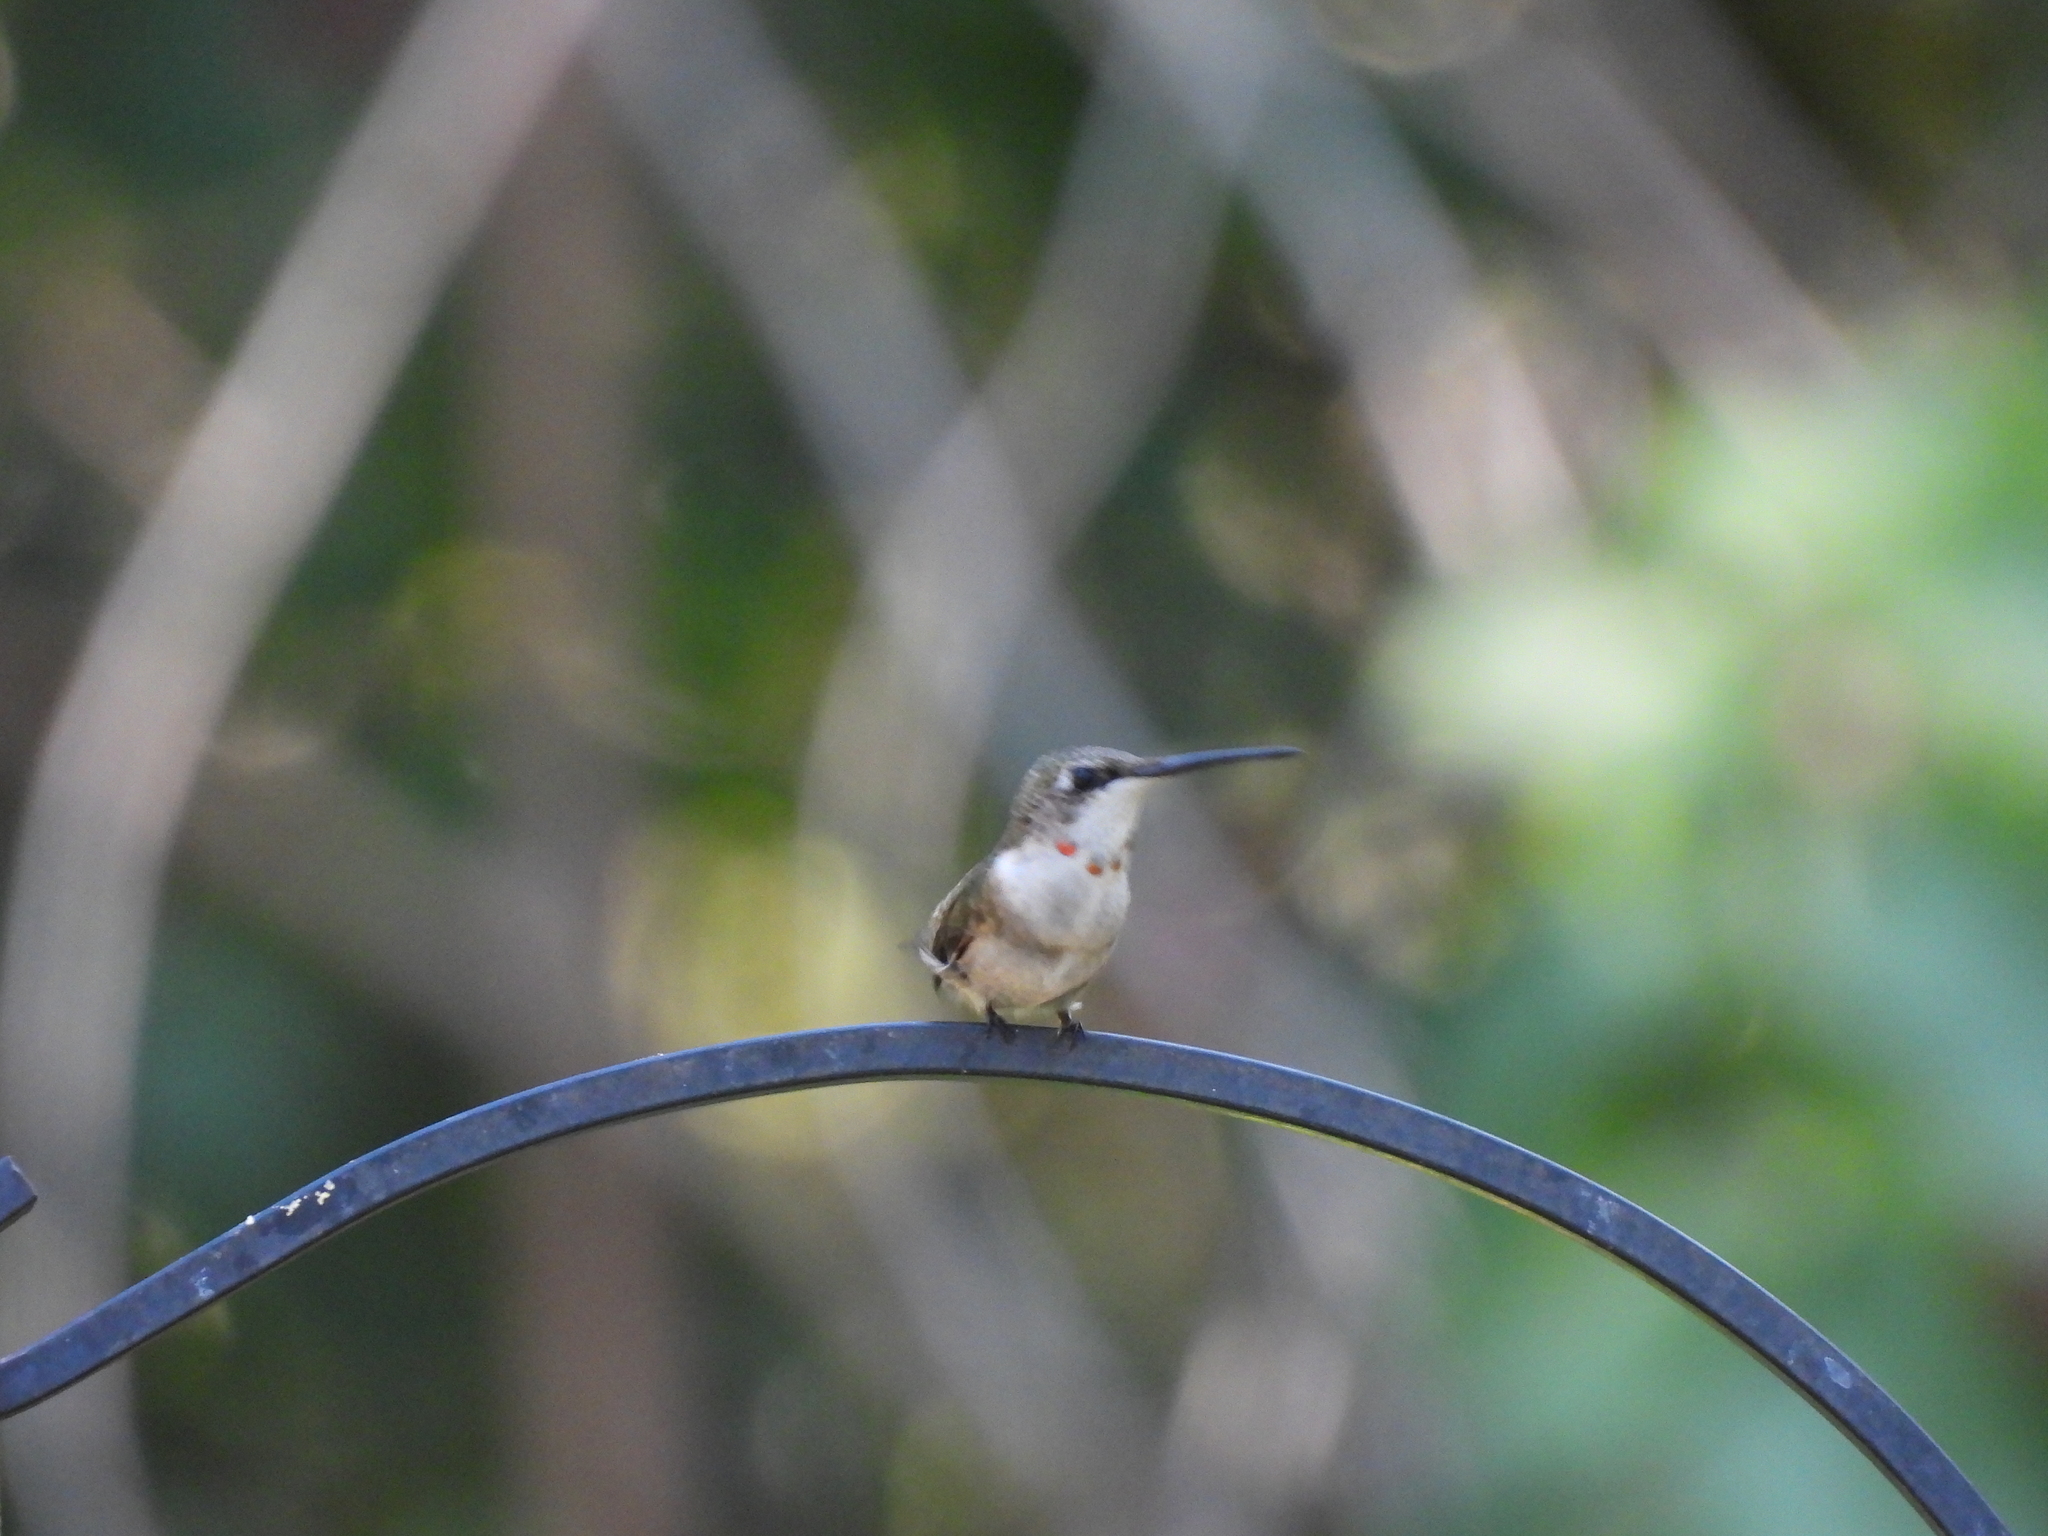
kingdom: Animalia
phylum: Chordata
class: Aves
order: Apodiformes
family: Trochilidae
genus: Archilochus
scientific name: Archilochus colubris
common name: Ruby-throated hummingbird
